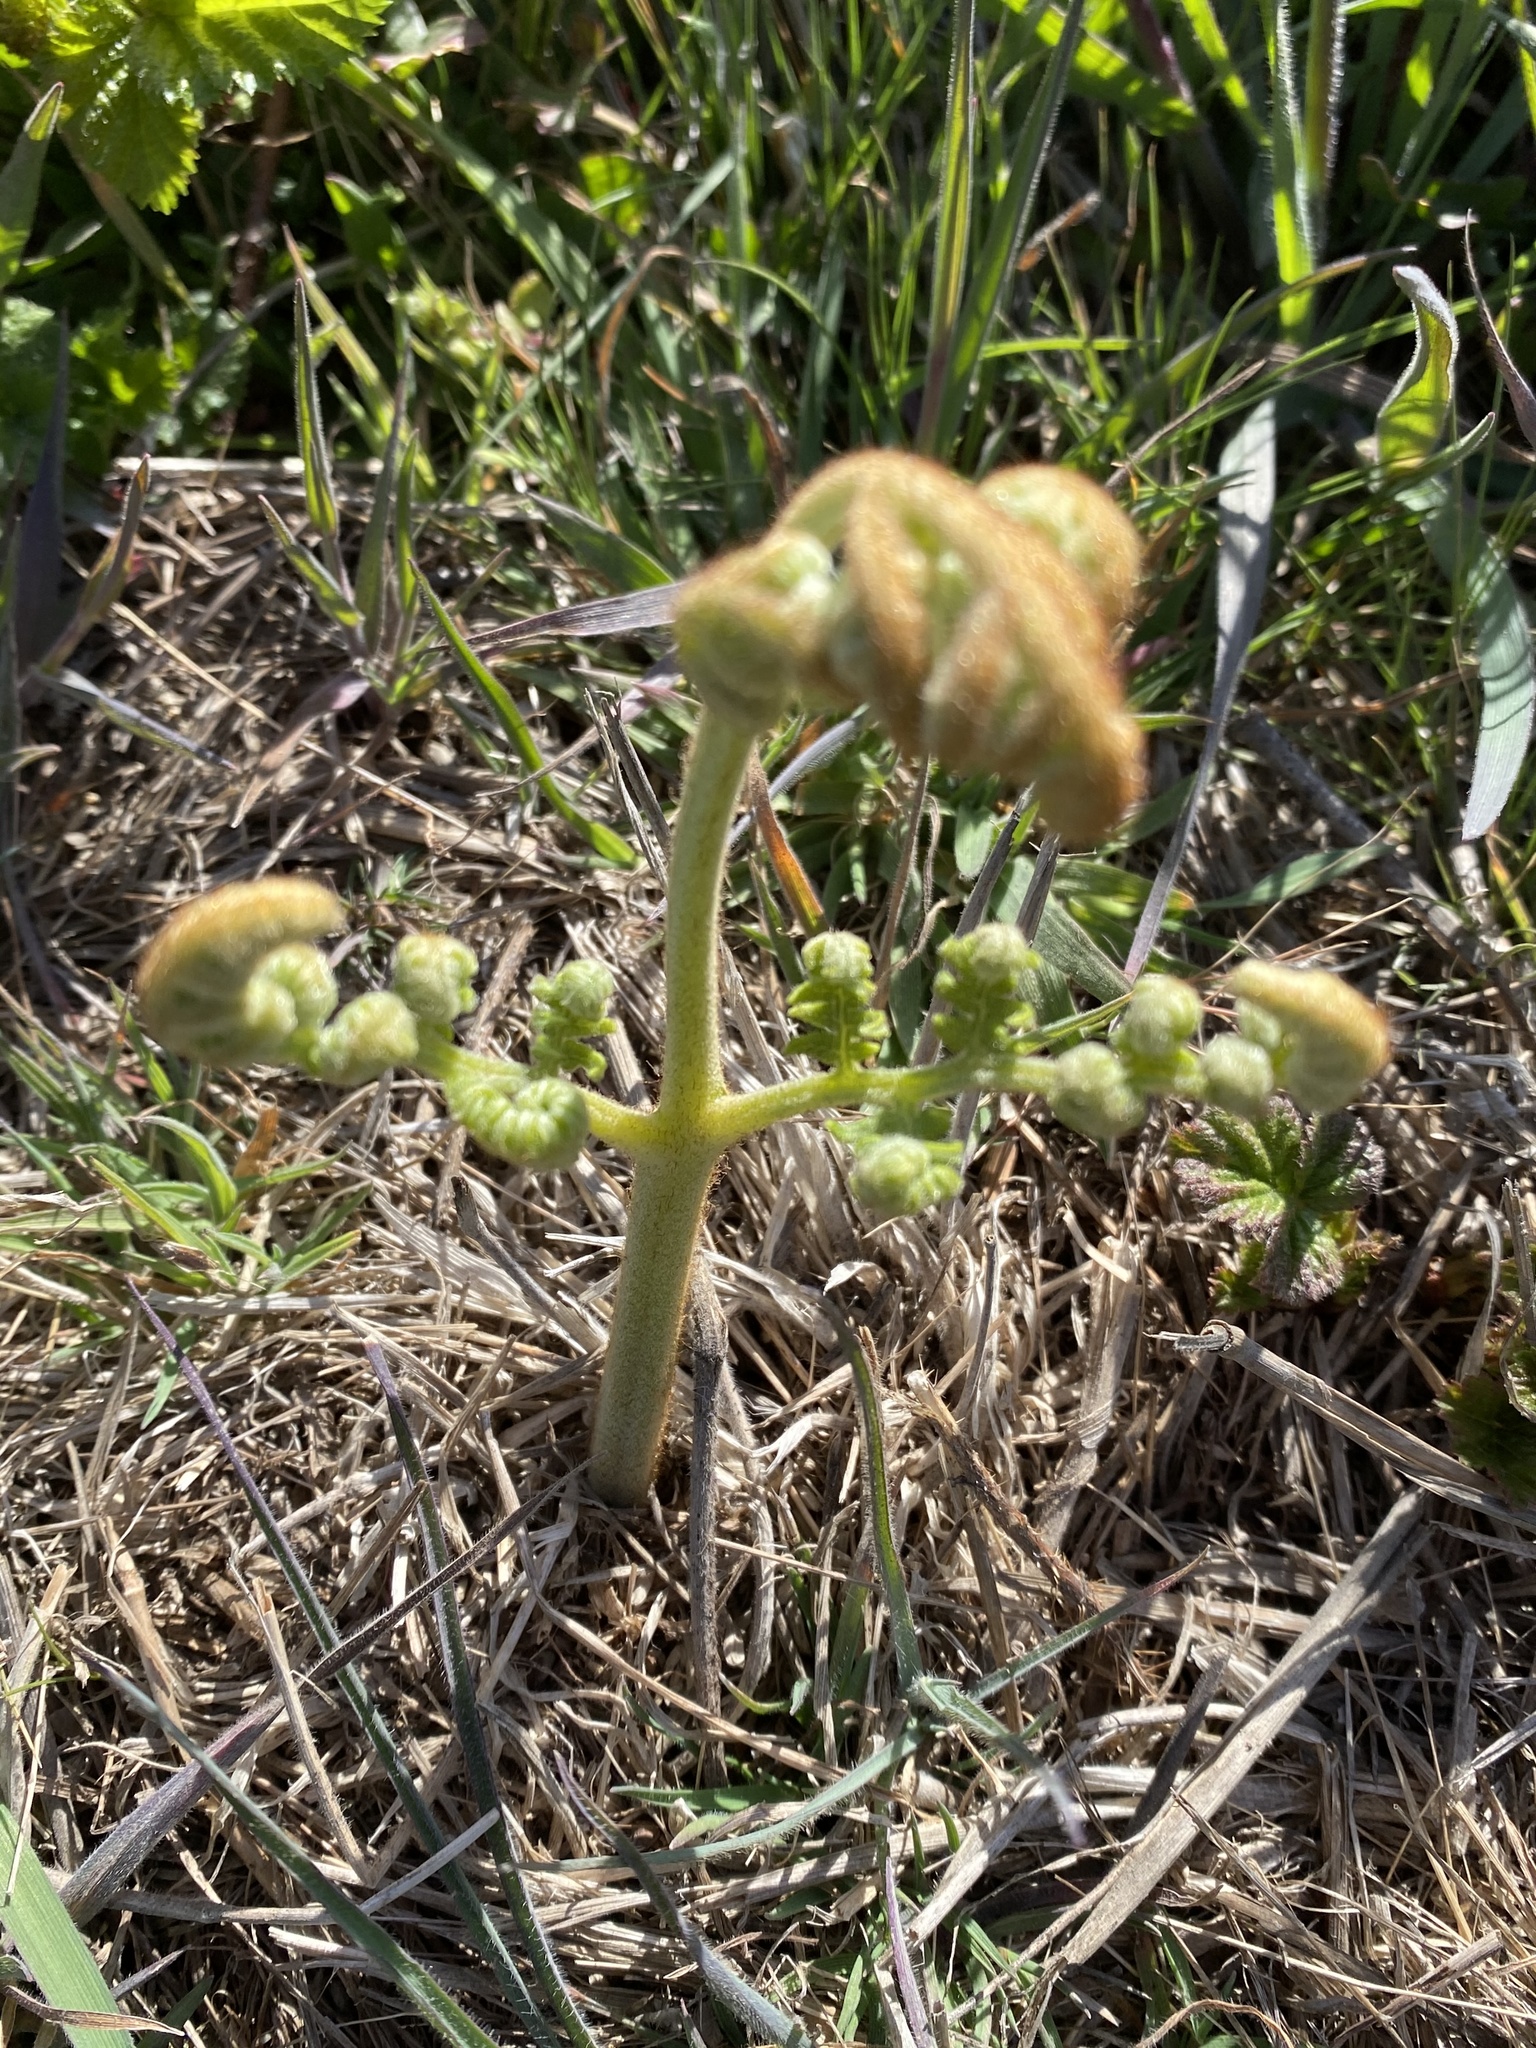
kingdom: Plantae
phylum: Tracheophyta
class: Polypodiopsida
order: Polypodiales
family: Dennstaedtiaceae
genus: Pteridium
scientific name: Pteridium aquilinum
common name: Bracken
